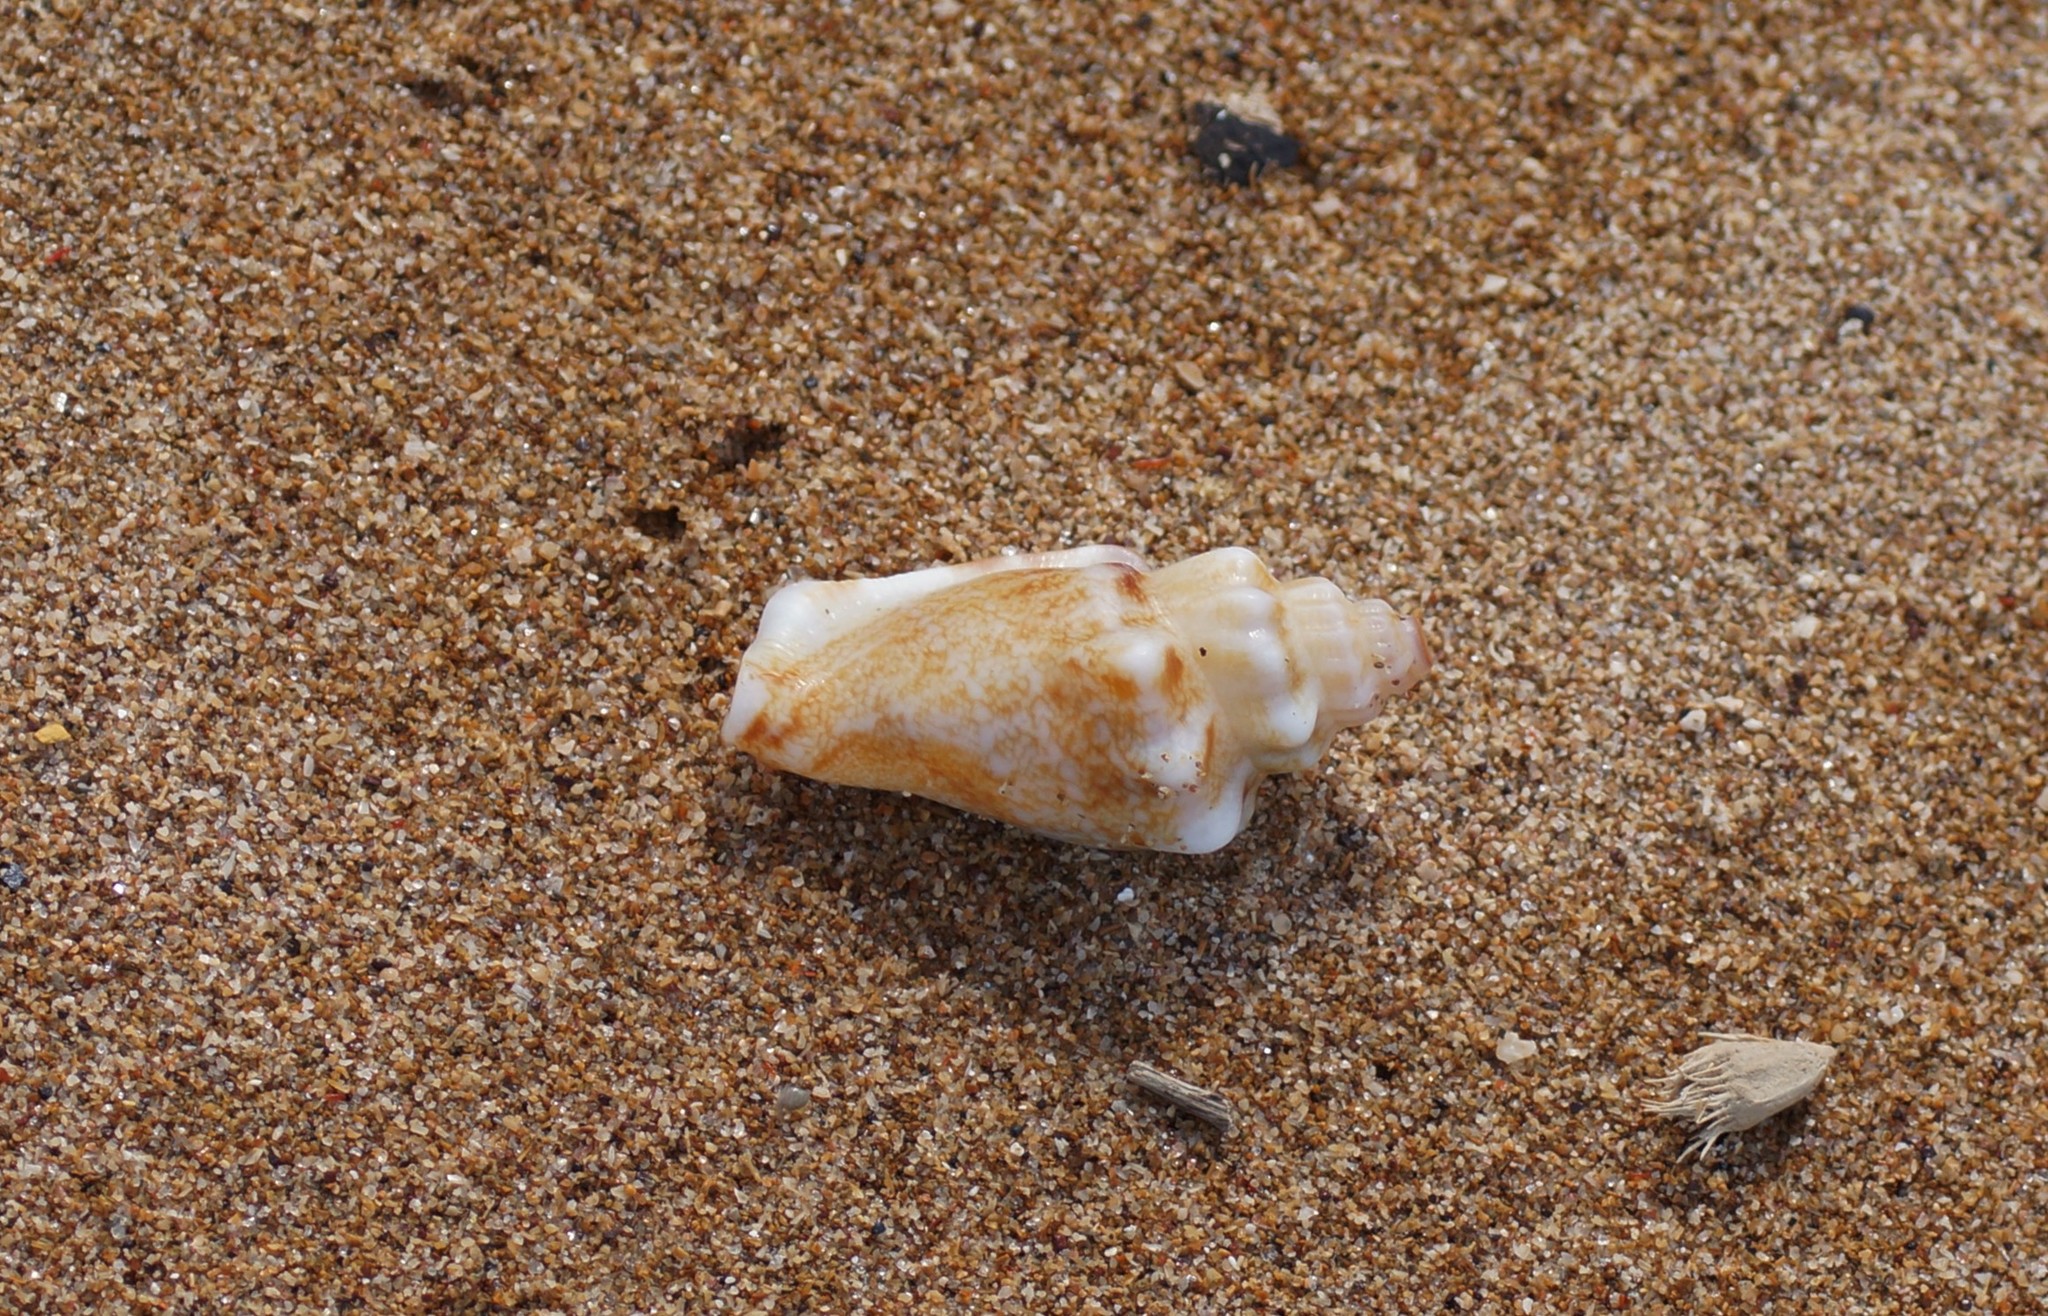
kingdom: Animalia
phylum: Mollusca
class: Gastropoda
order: Littorinimorpha
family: Strombidae
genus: Canarium
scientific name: Canarium orrae
